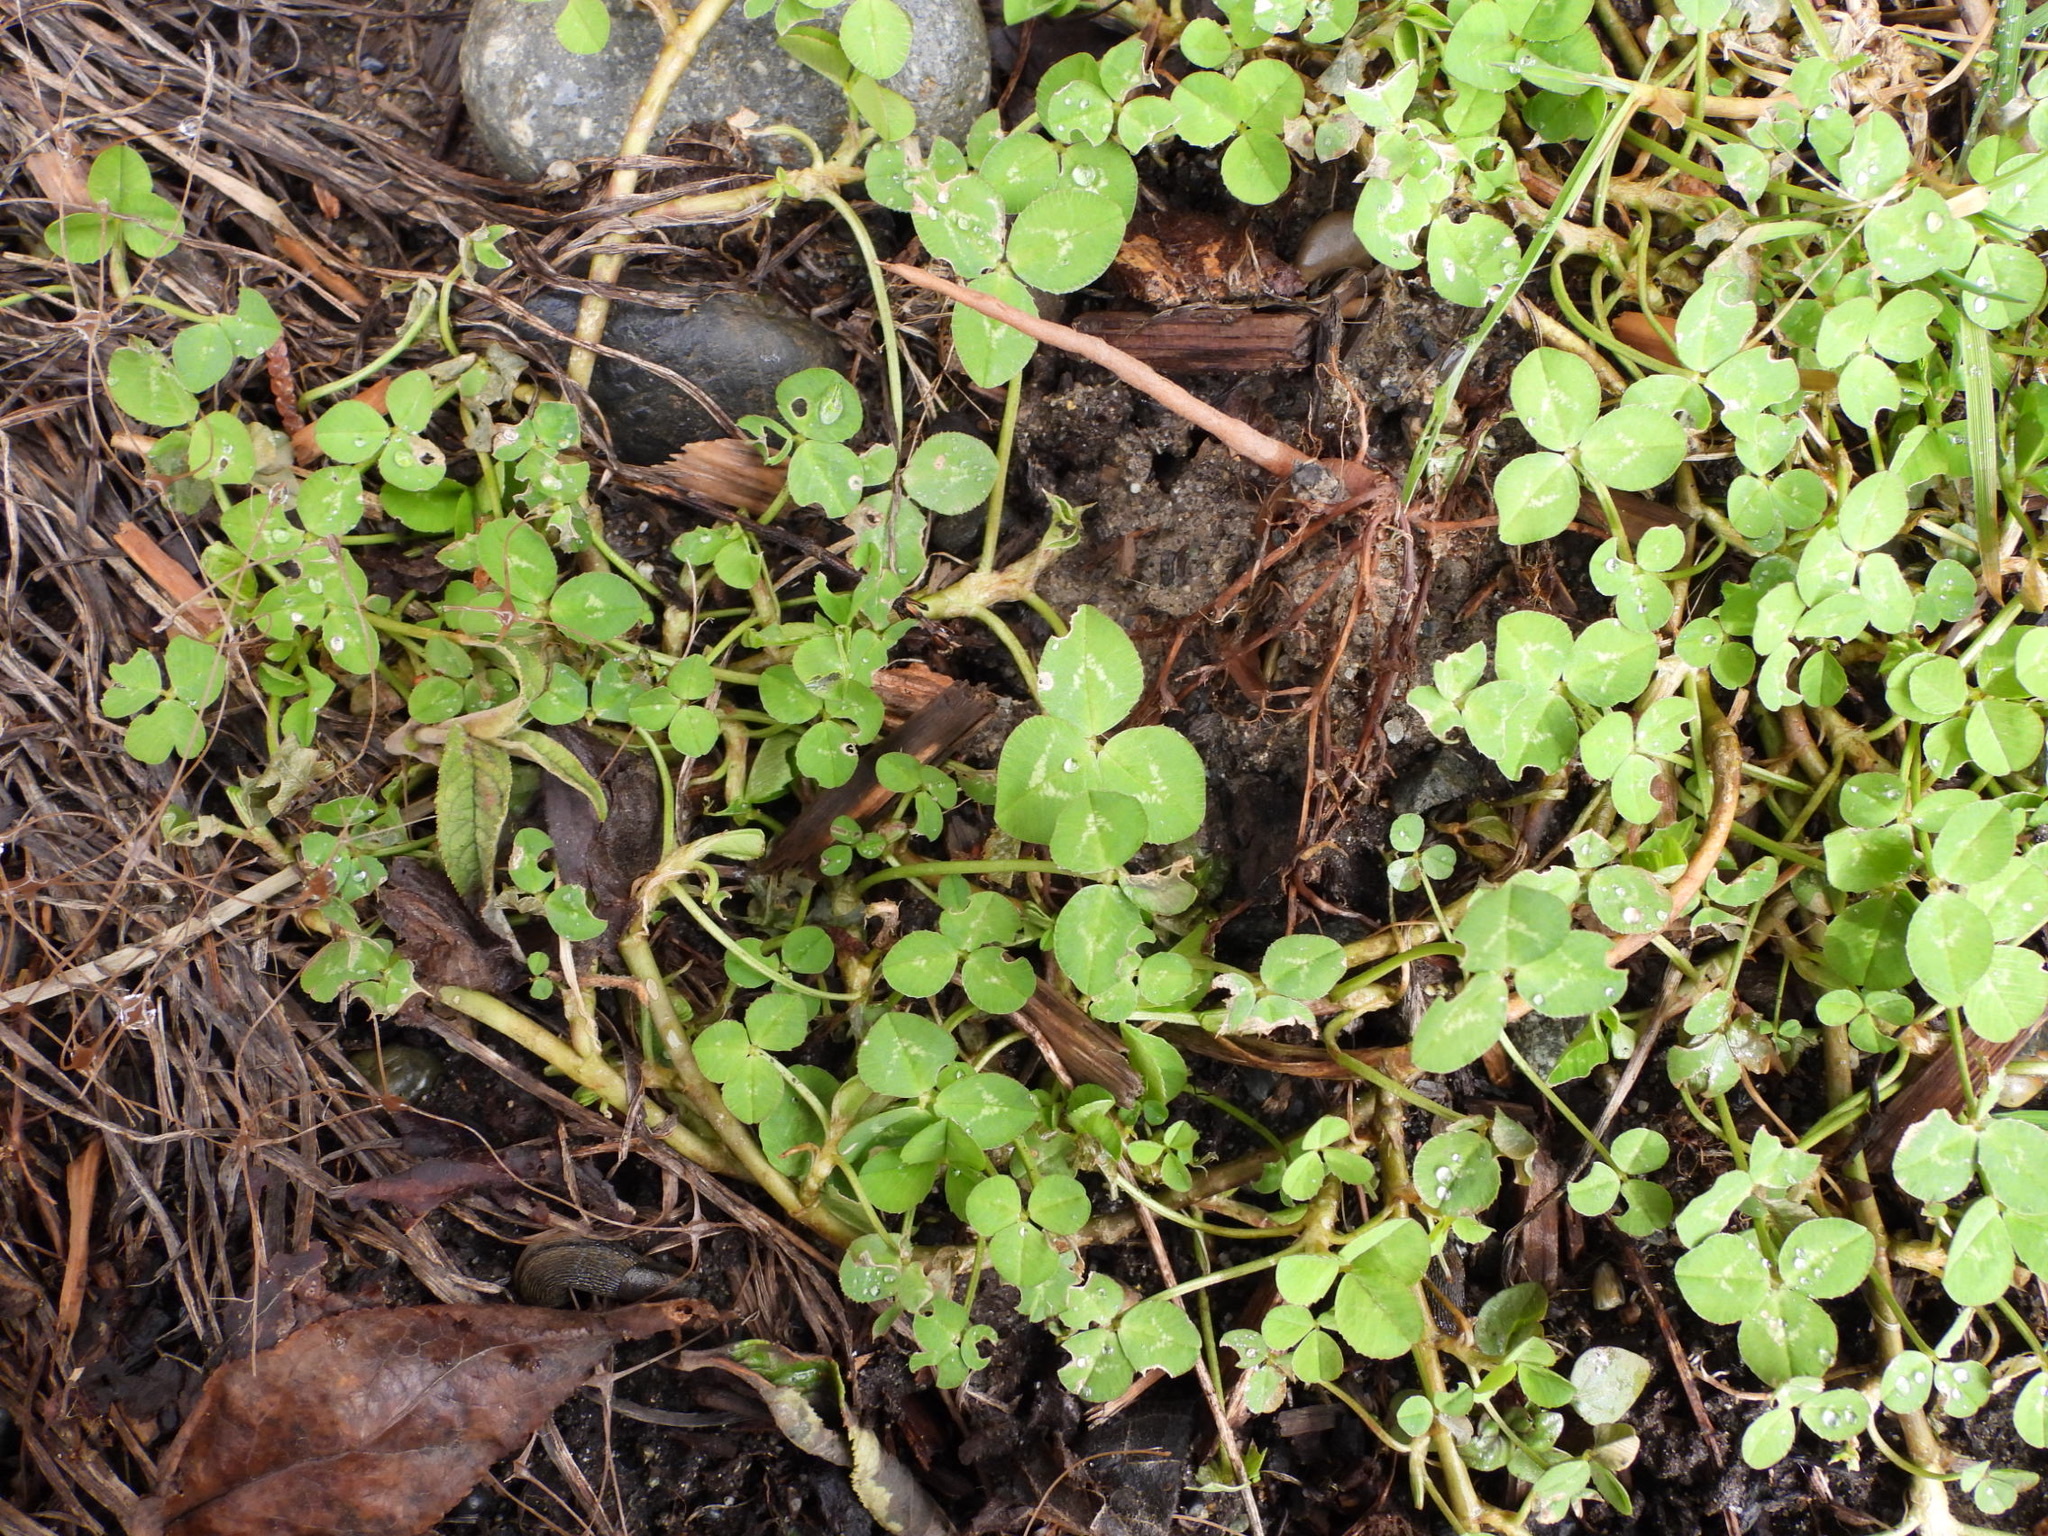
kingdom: Plantae
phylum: Tracheophyta
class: Magnoliopsida
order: Fabales
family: Fabaceae
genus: Trifolium
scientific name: Trifolium repens
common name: White clover
